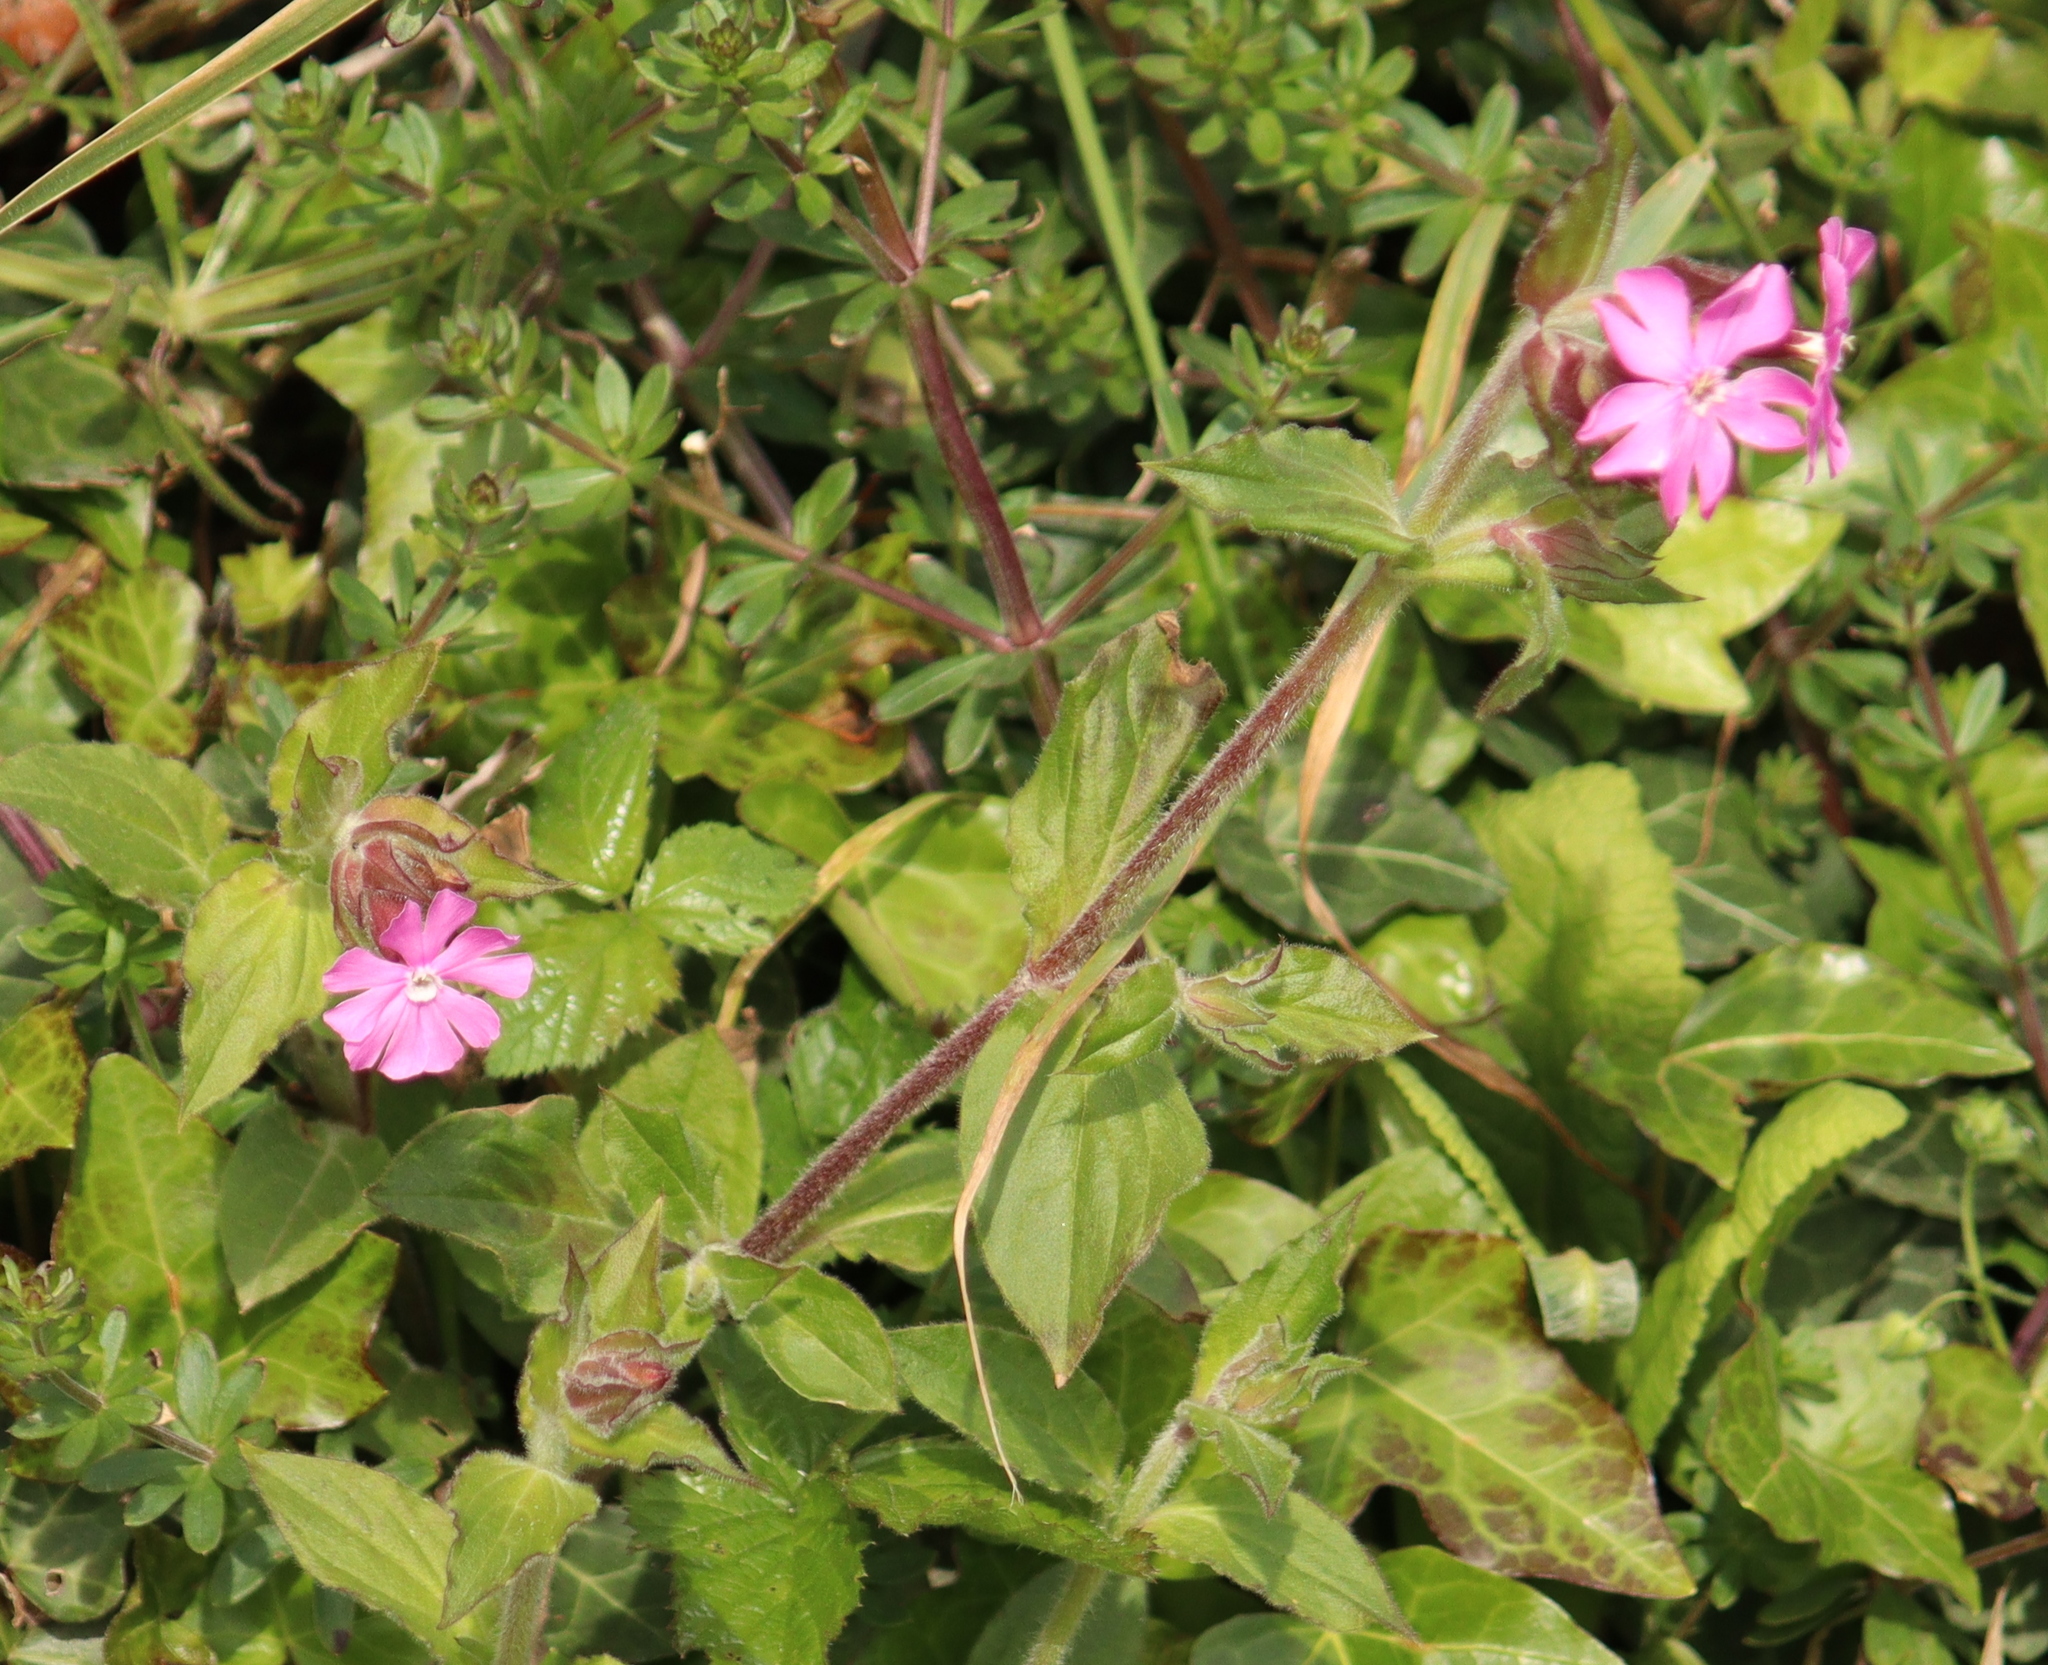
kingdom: Plantae
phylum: Tracheophyta
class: Magnoliopsida
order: Caryophyllales
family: Caryophyllaceae
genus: Silene
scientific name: Silene dioica
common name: Red campion
